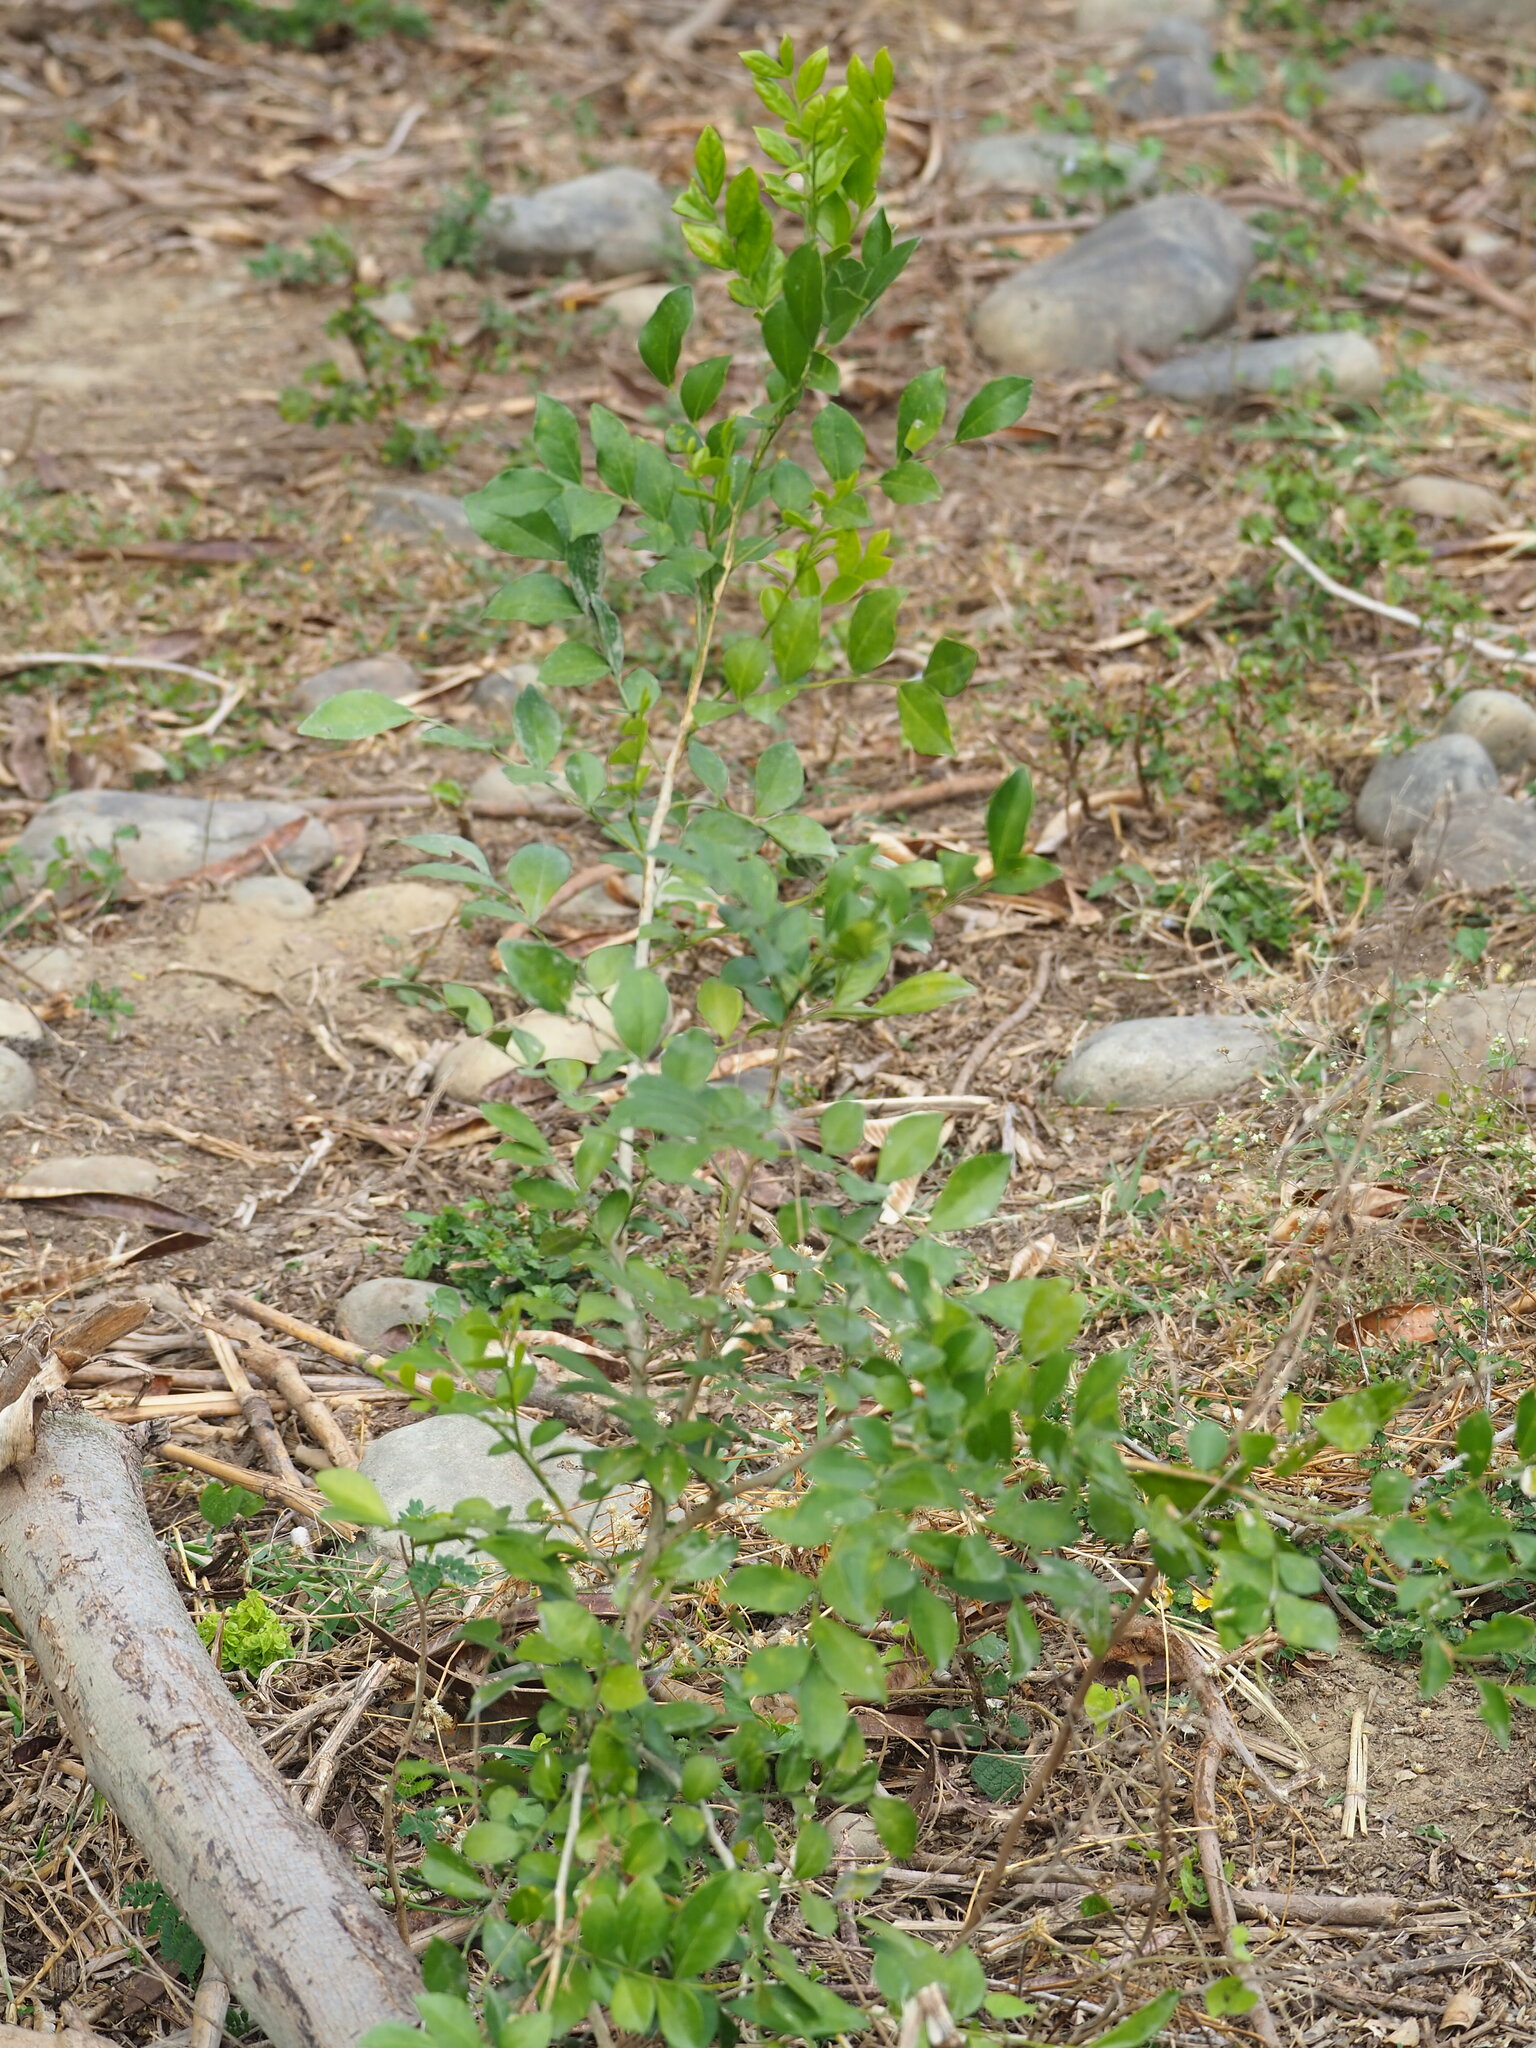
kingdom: Plantae
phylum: Tracheophyta
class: Magnoliopsida
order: Sapindales
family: Rutaceae
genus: Murraya
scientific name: Murraya paniculata
